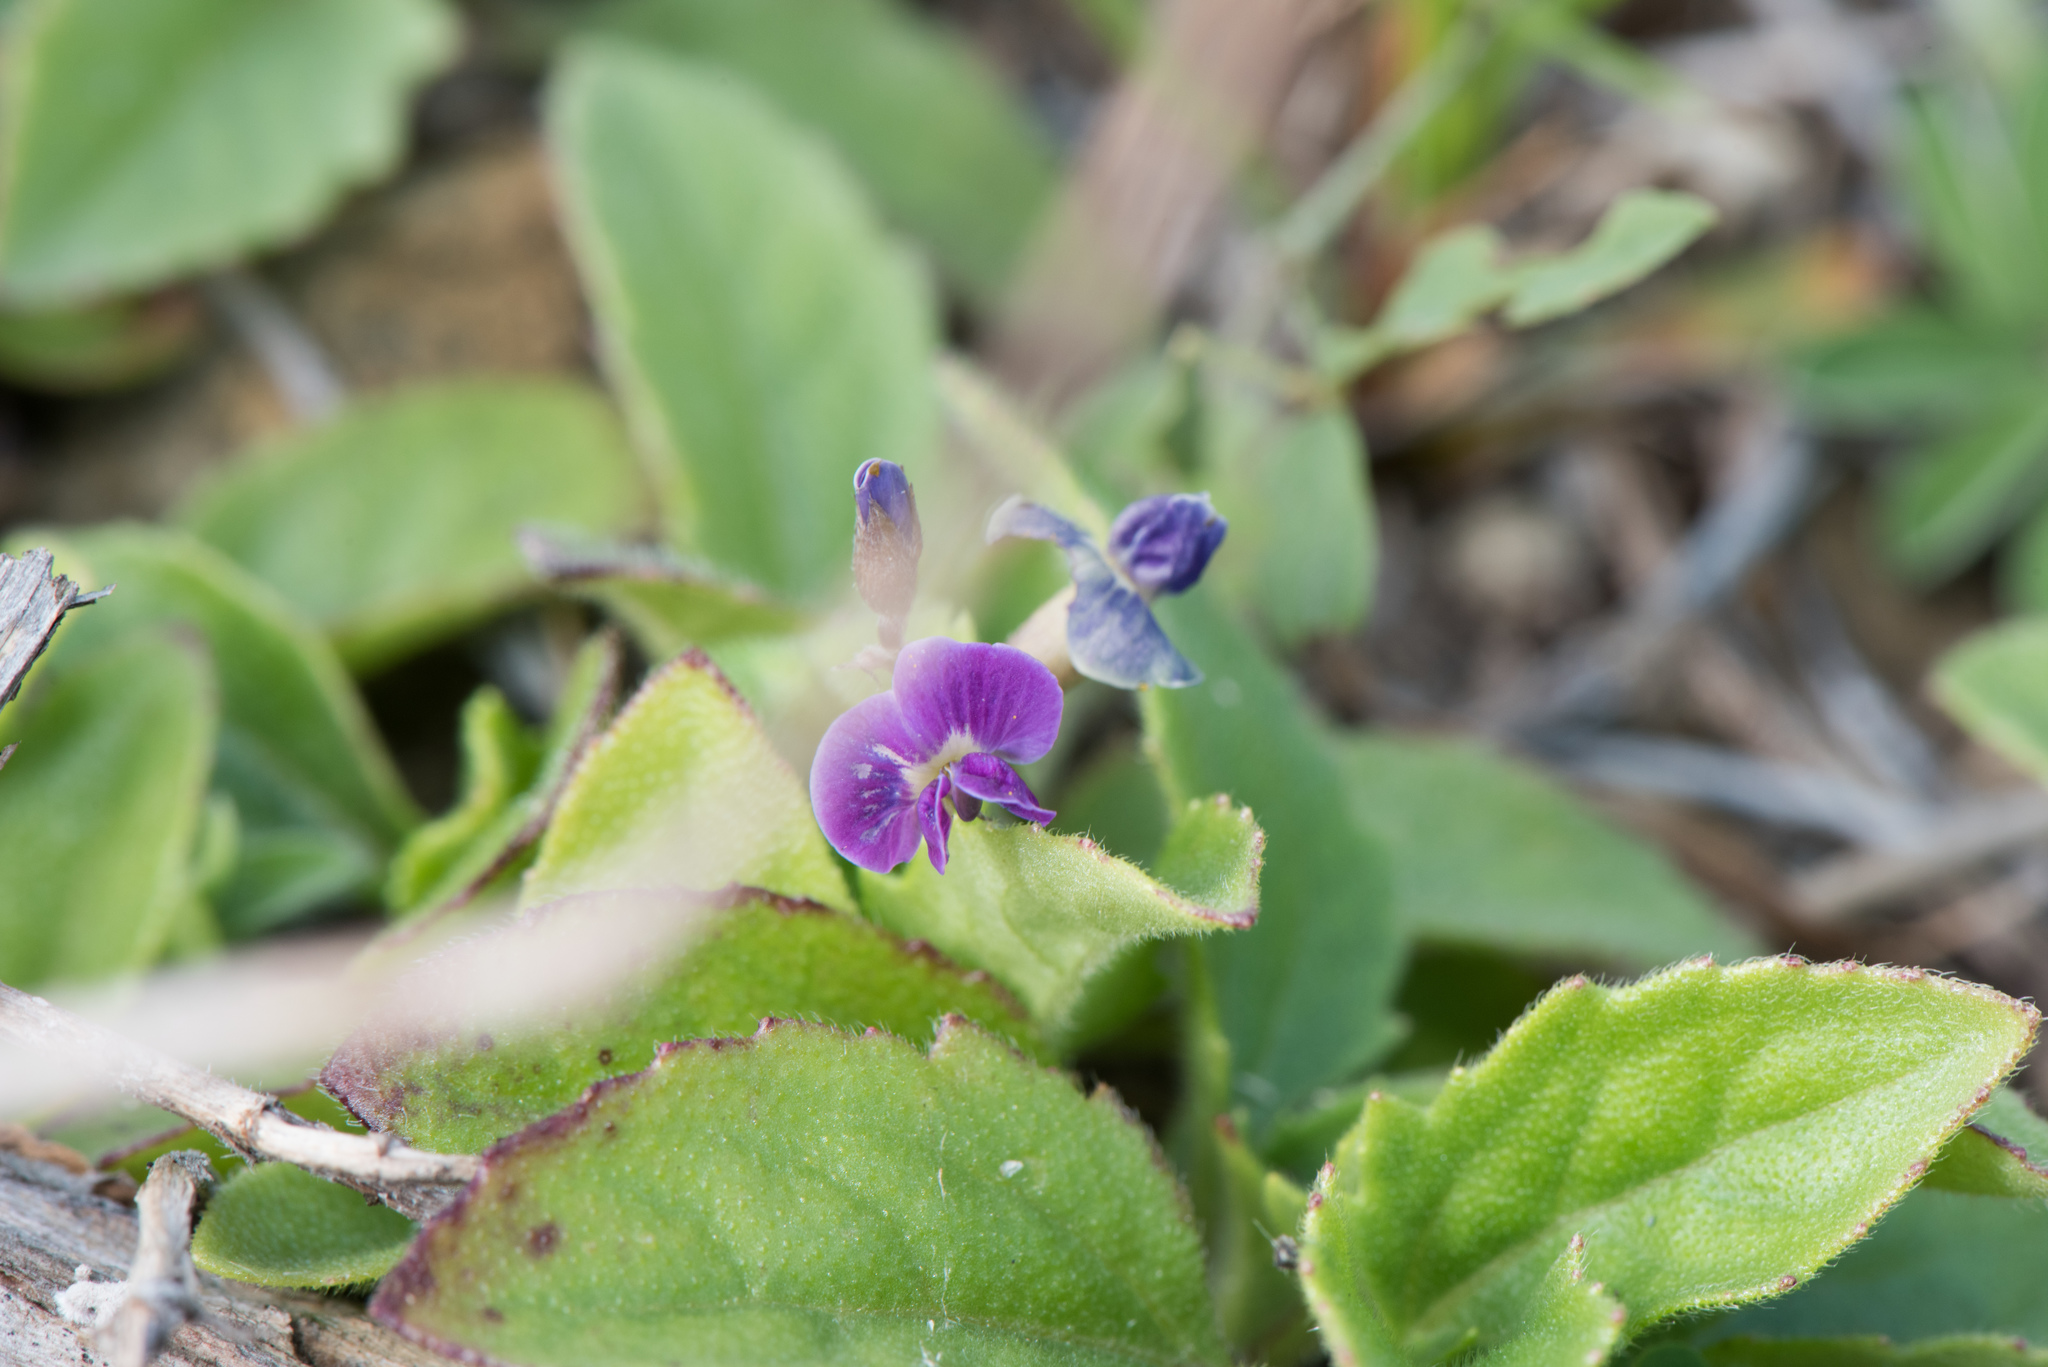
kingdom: Plantae
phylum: Tracheophyta
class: Magnoliopsida
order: Fabales
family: Fabaceae
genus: Glycine
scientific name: Glycine tabacina
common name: Pea glycine
